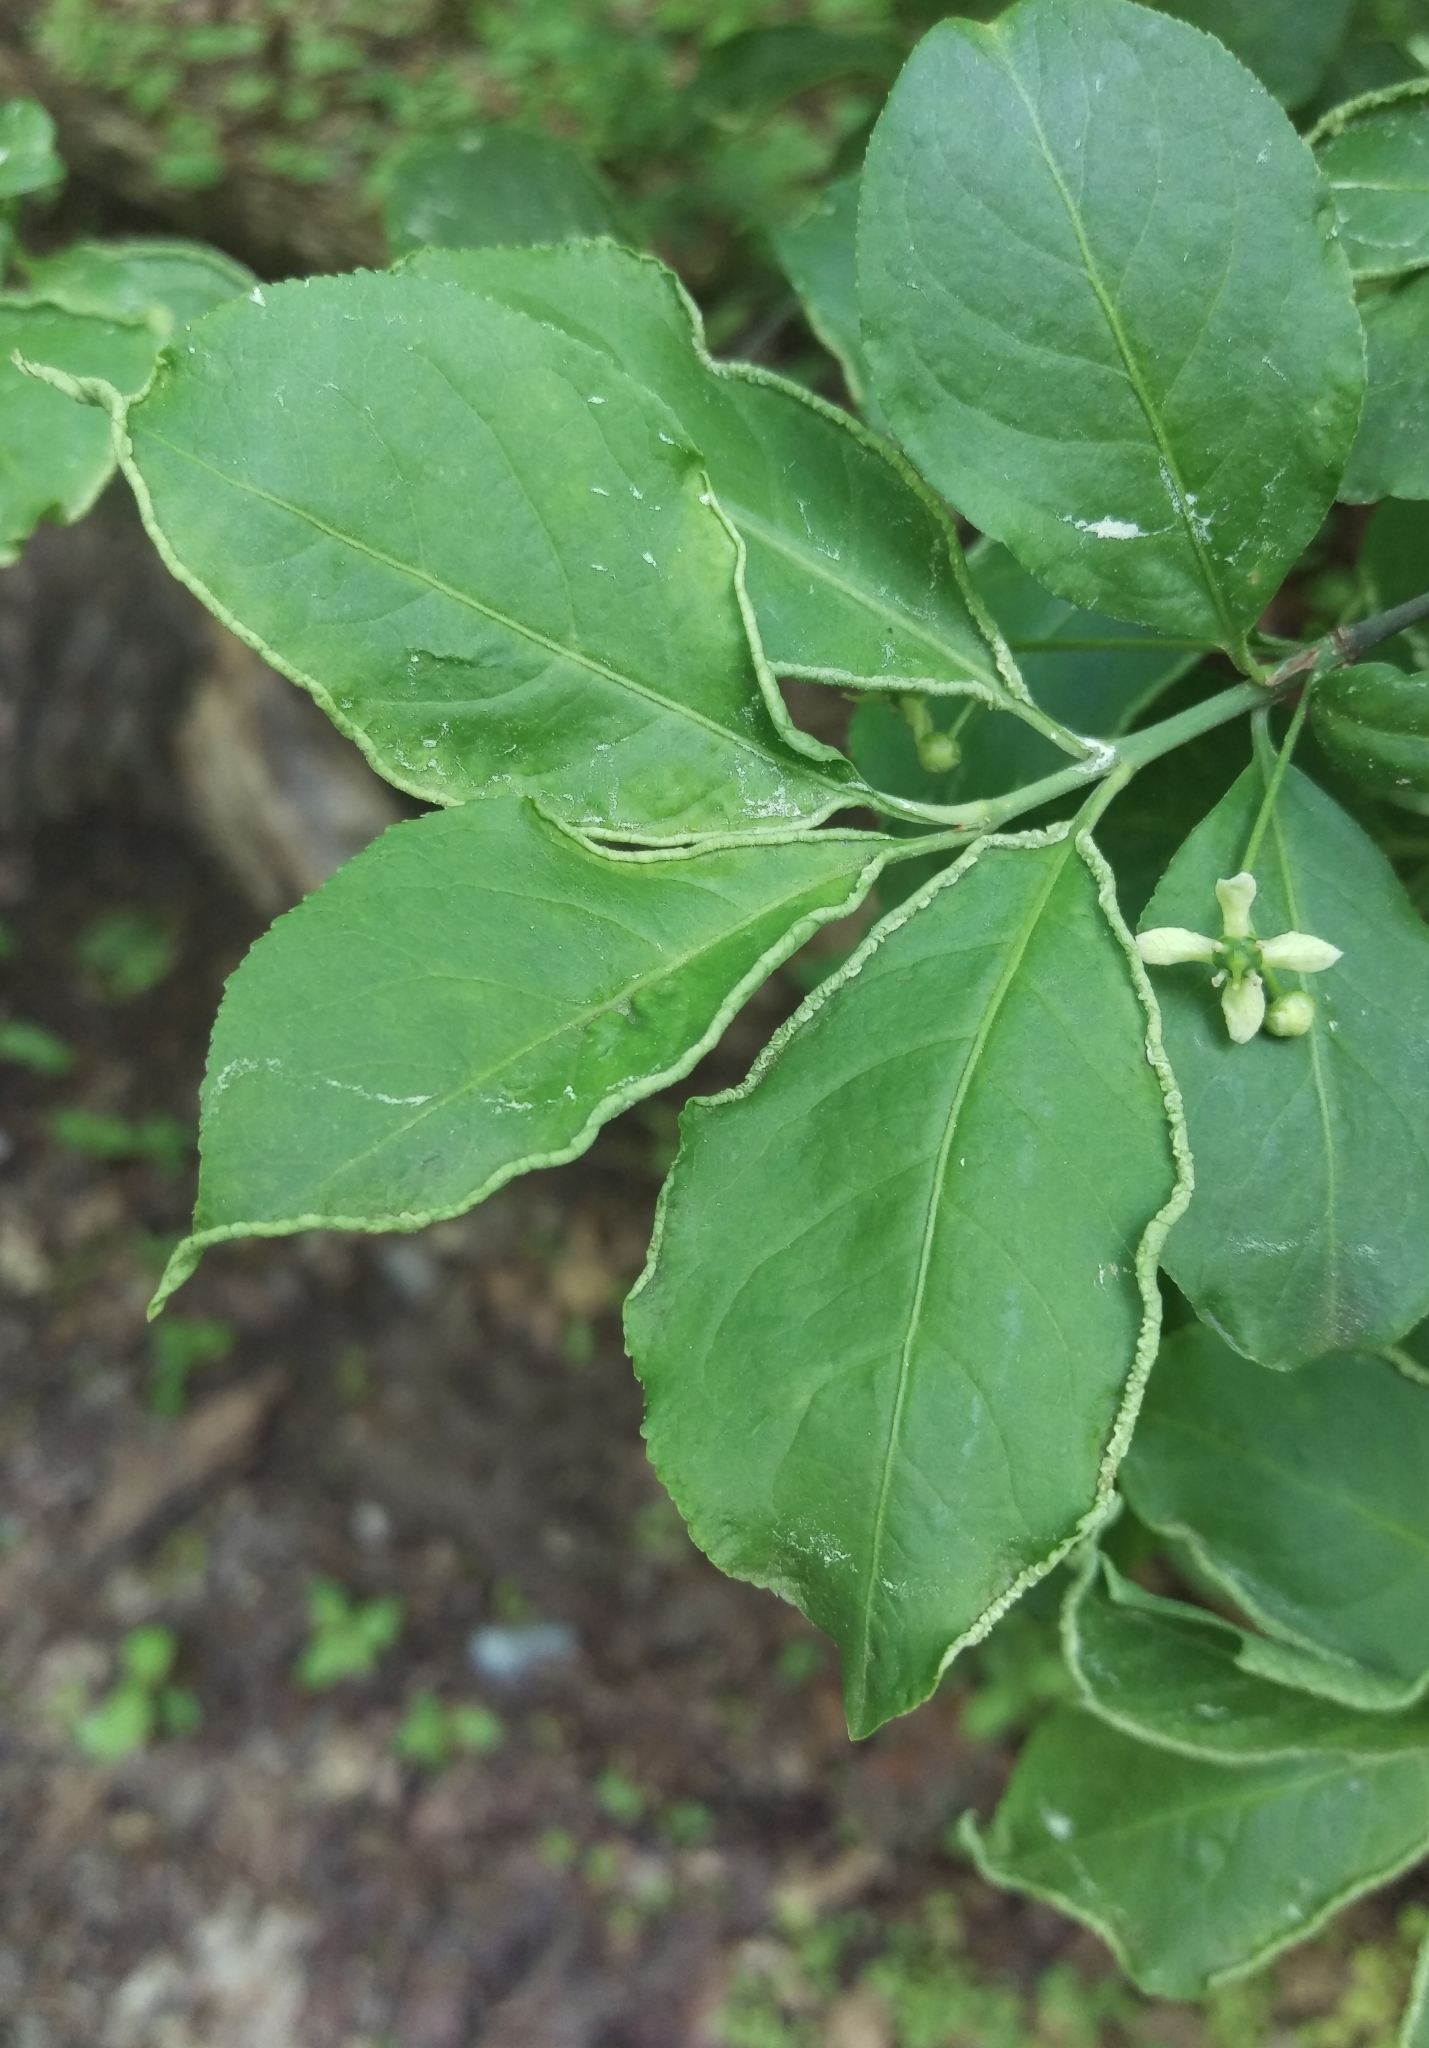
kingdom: Animalia
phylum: Arthropoda
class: Arachnida
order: Trombidiformes
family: Eriophyidae
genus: Stenacis
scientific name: Stenacis evonymi
